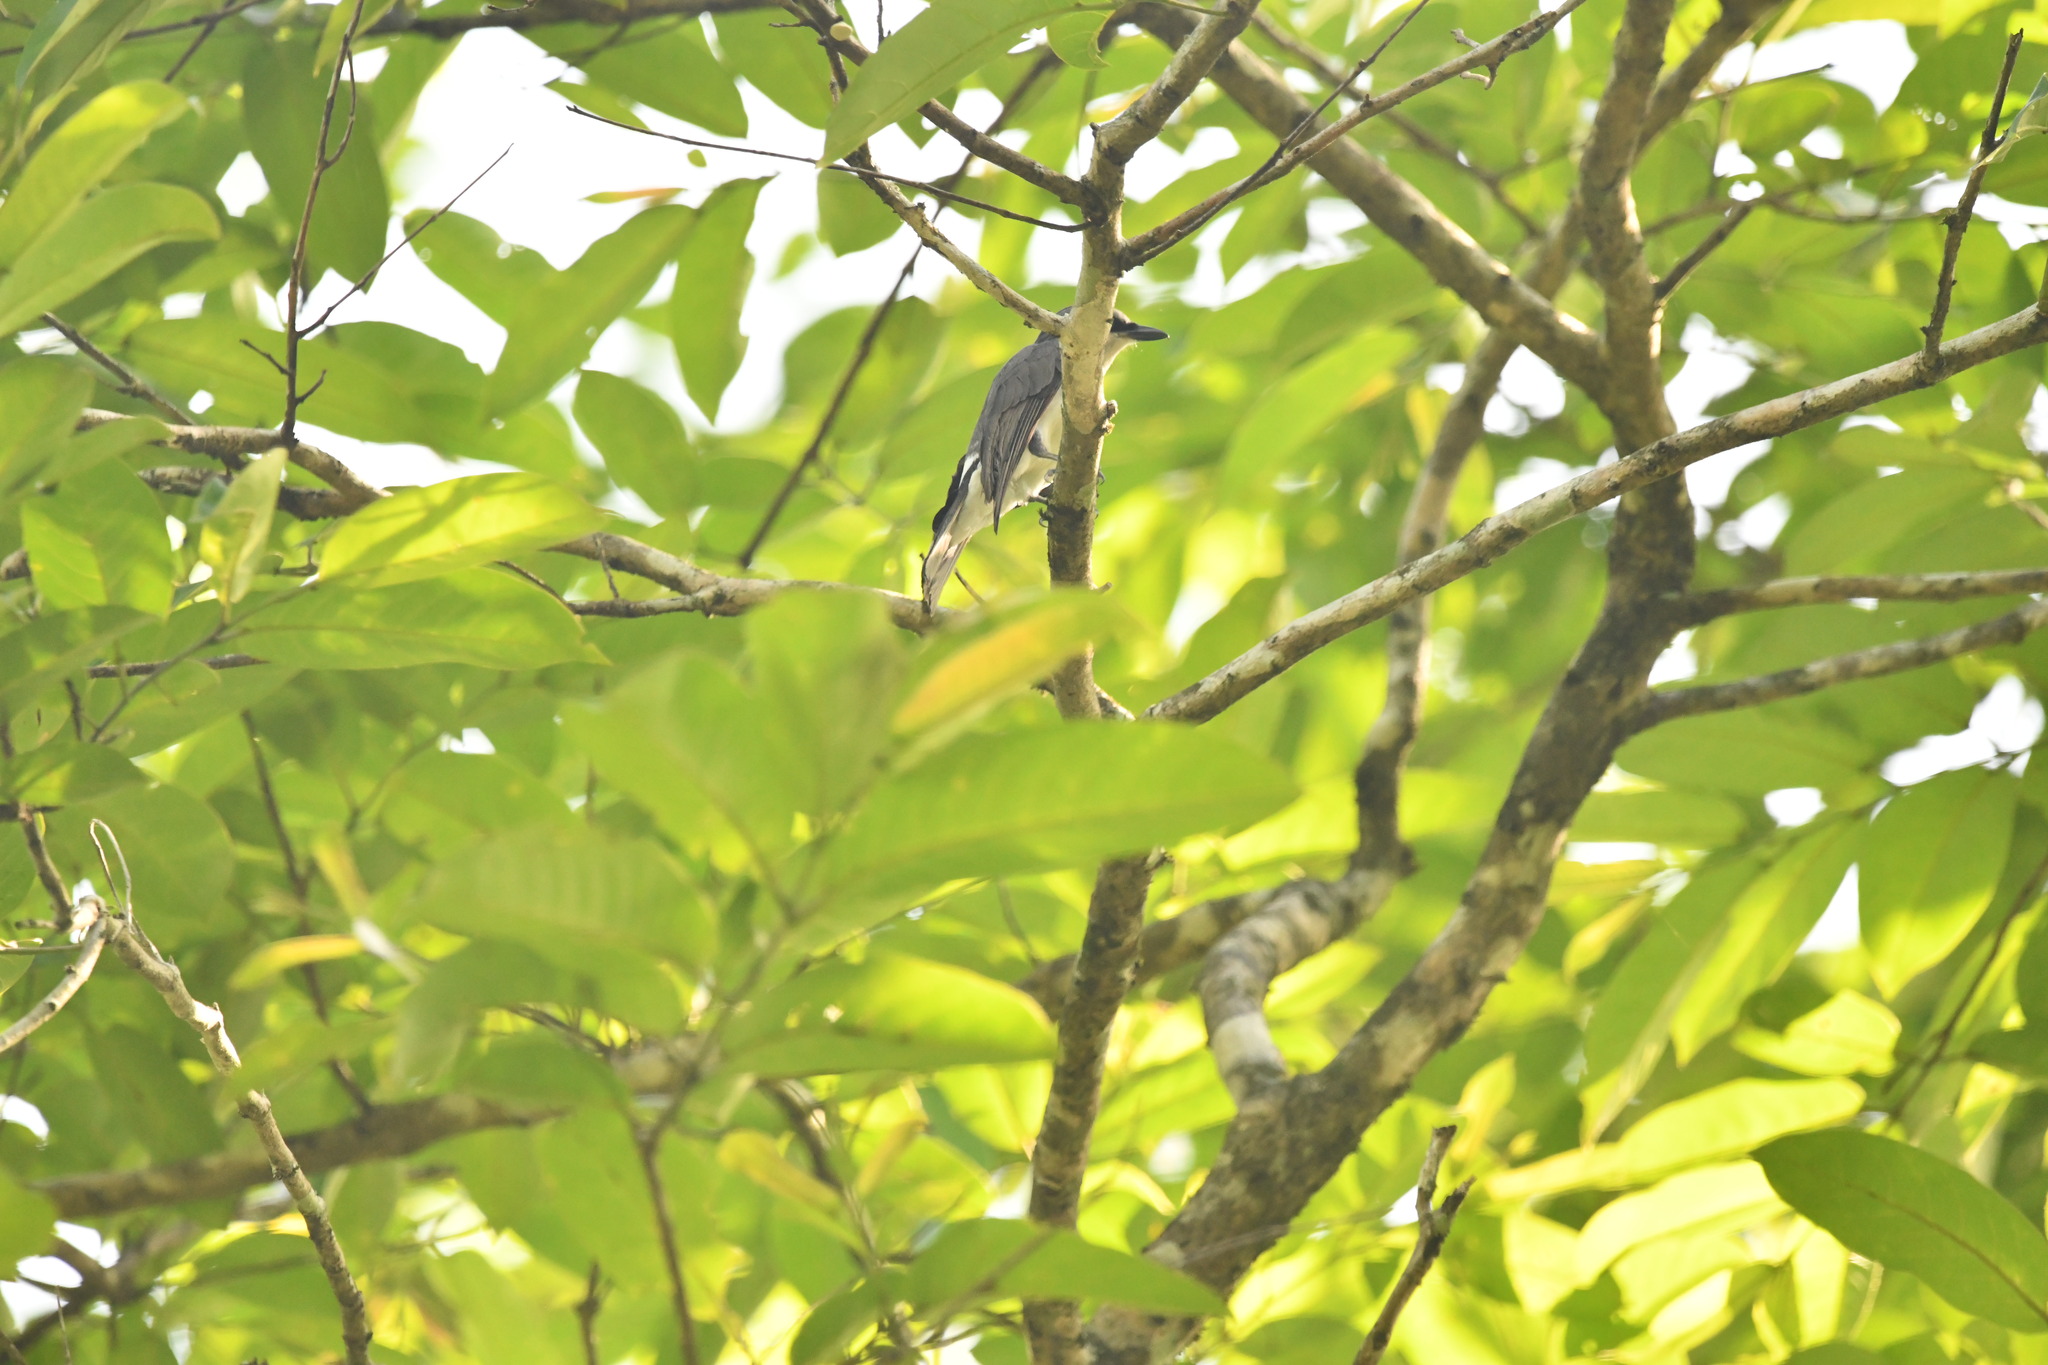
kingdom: Animalia
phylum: Chordata
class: Aves
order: Passeriformes
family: Campephagidae
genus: Coracina
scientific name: Coracina macei
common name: Large cuckooshrike
